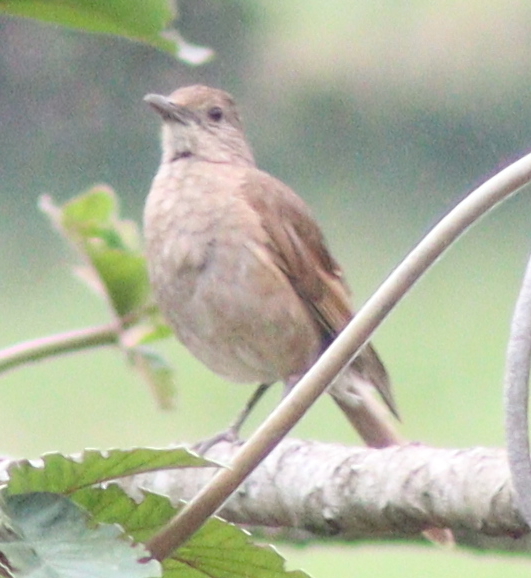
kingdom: Animalia
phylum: Chordata
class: Aves
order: Passeriformes
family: Turdidae
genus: Turdus
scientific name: Turdus leucomelas
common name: Pale-breasted thrush
